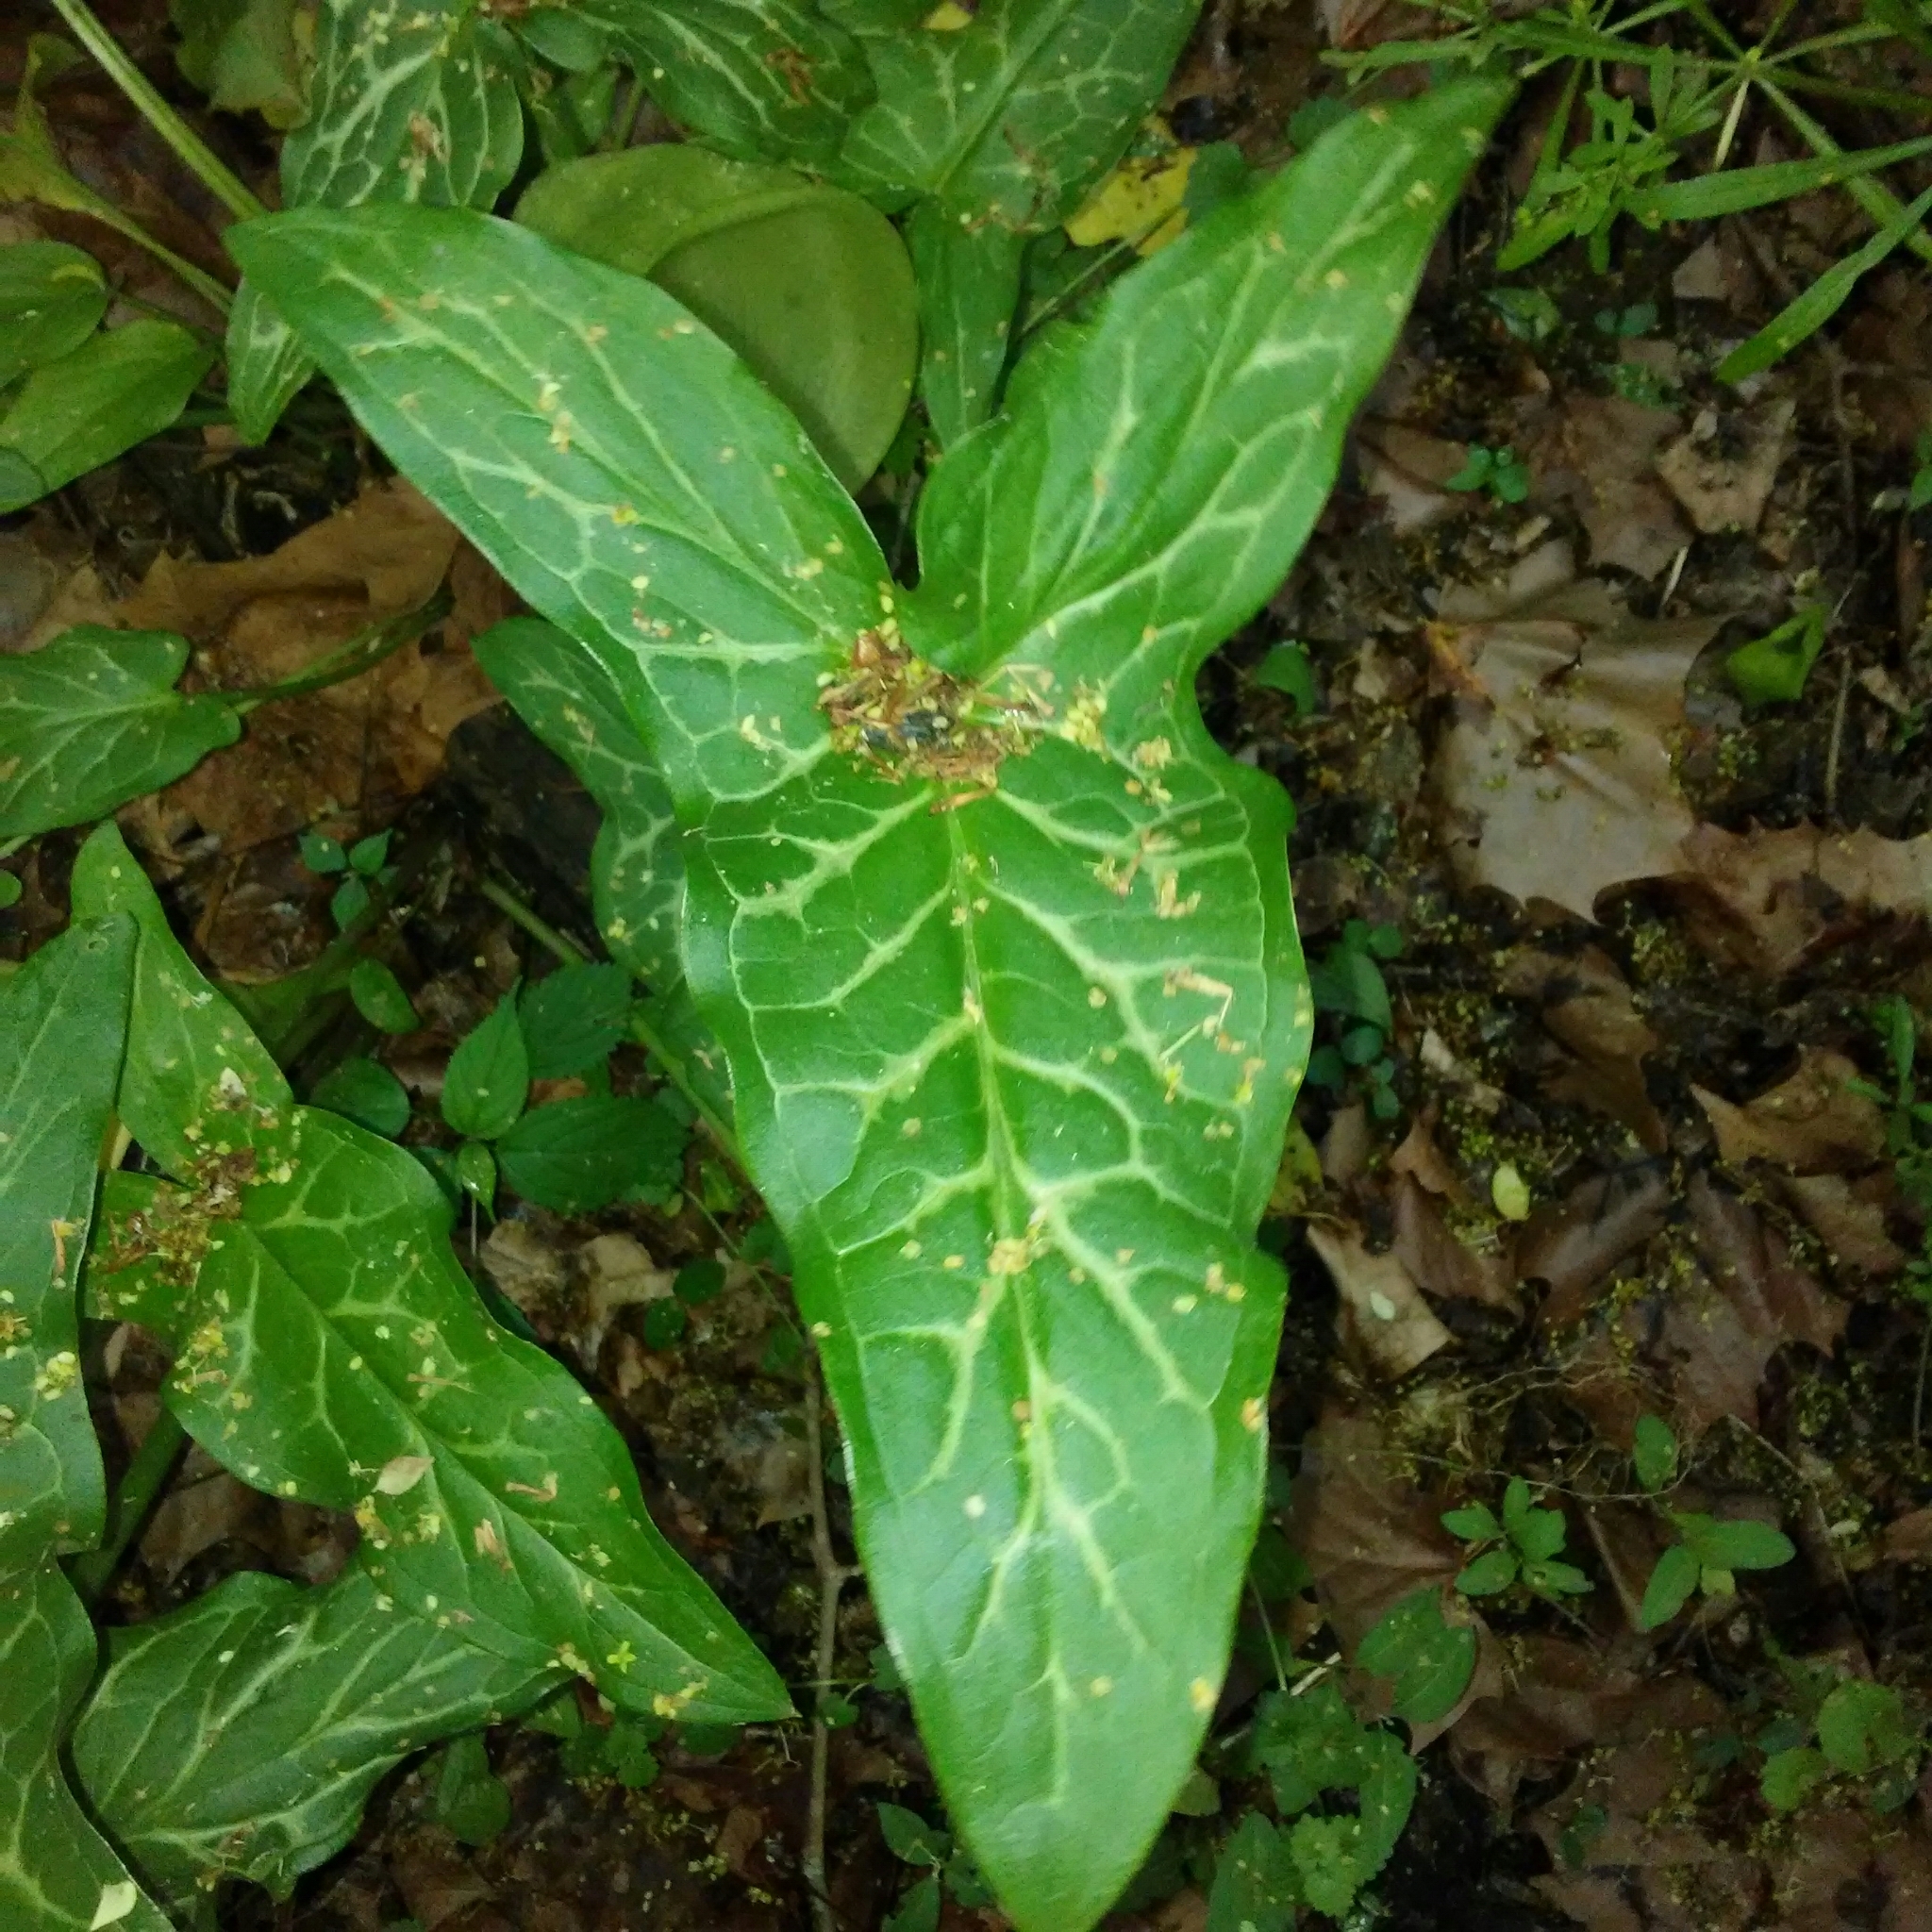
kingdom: Plantae
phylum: Tracheophyta
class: Liliopsida
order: Alismatales
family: Araceae
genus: Arum
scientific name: Arum italicum
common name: Italian lords-and-ladies
